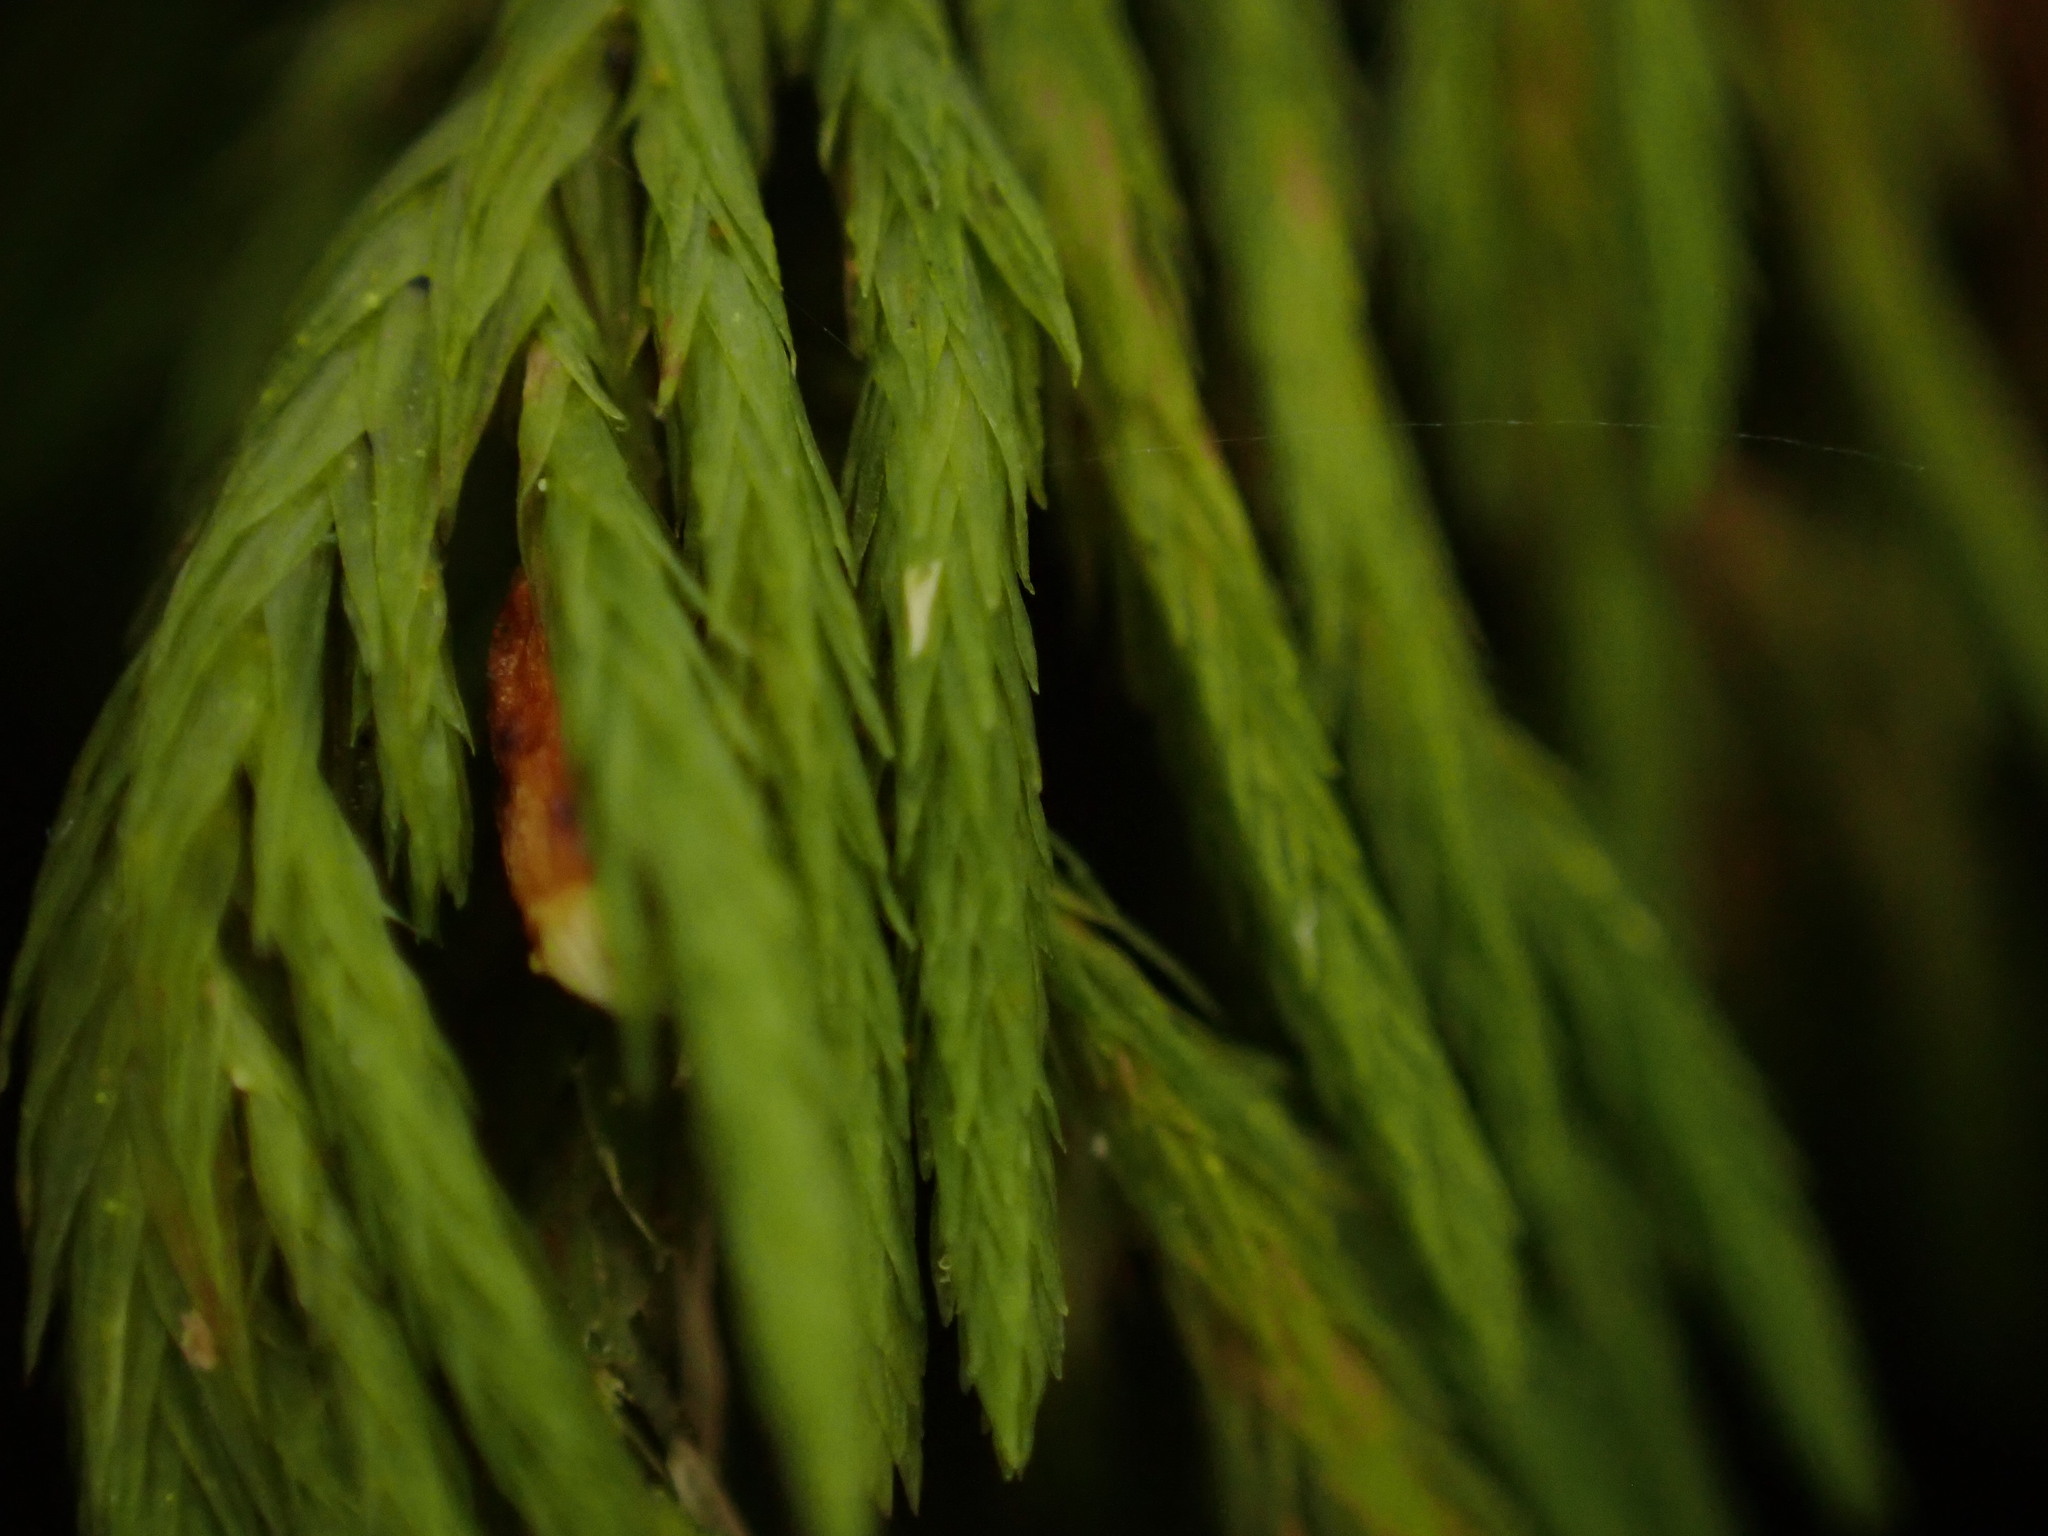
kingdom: Plantae
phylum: Bryophyta
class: Bryopsida
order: Hypnales
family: Cryphaeaceae
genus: Dendroalsia
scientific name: Dendroalsia abietina
